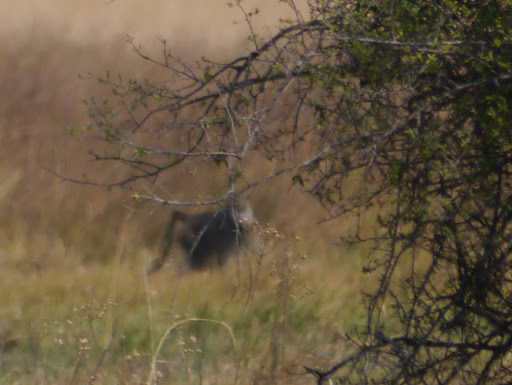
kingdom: Animalia
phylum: Chordata
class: Mammalia
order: Primates
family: Cercopithecidae
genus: Papio
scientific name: Papio ursinus
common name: Chacma baboon
